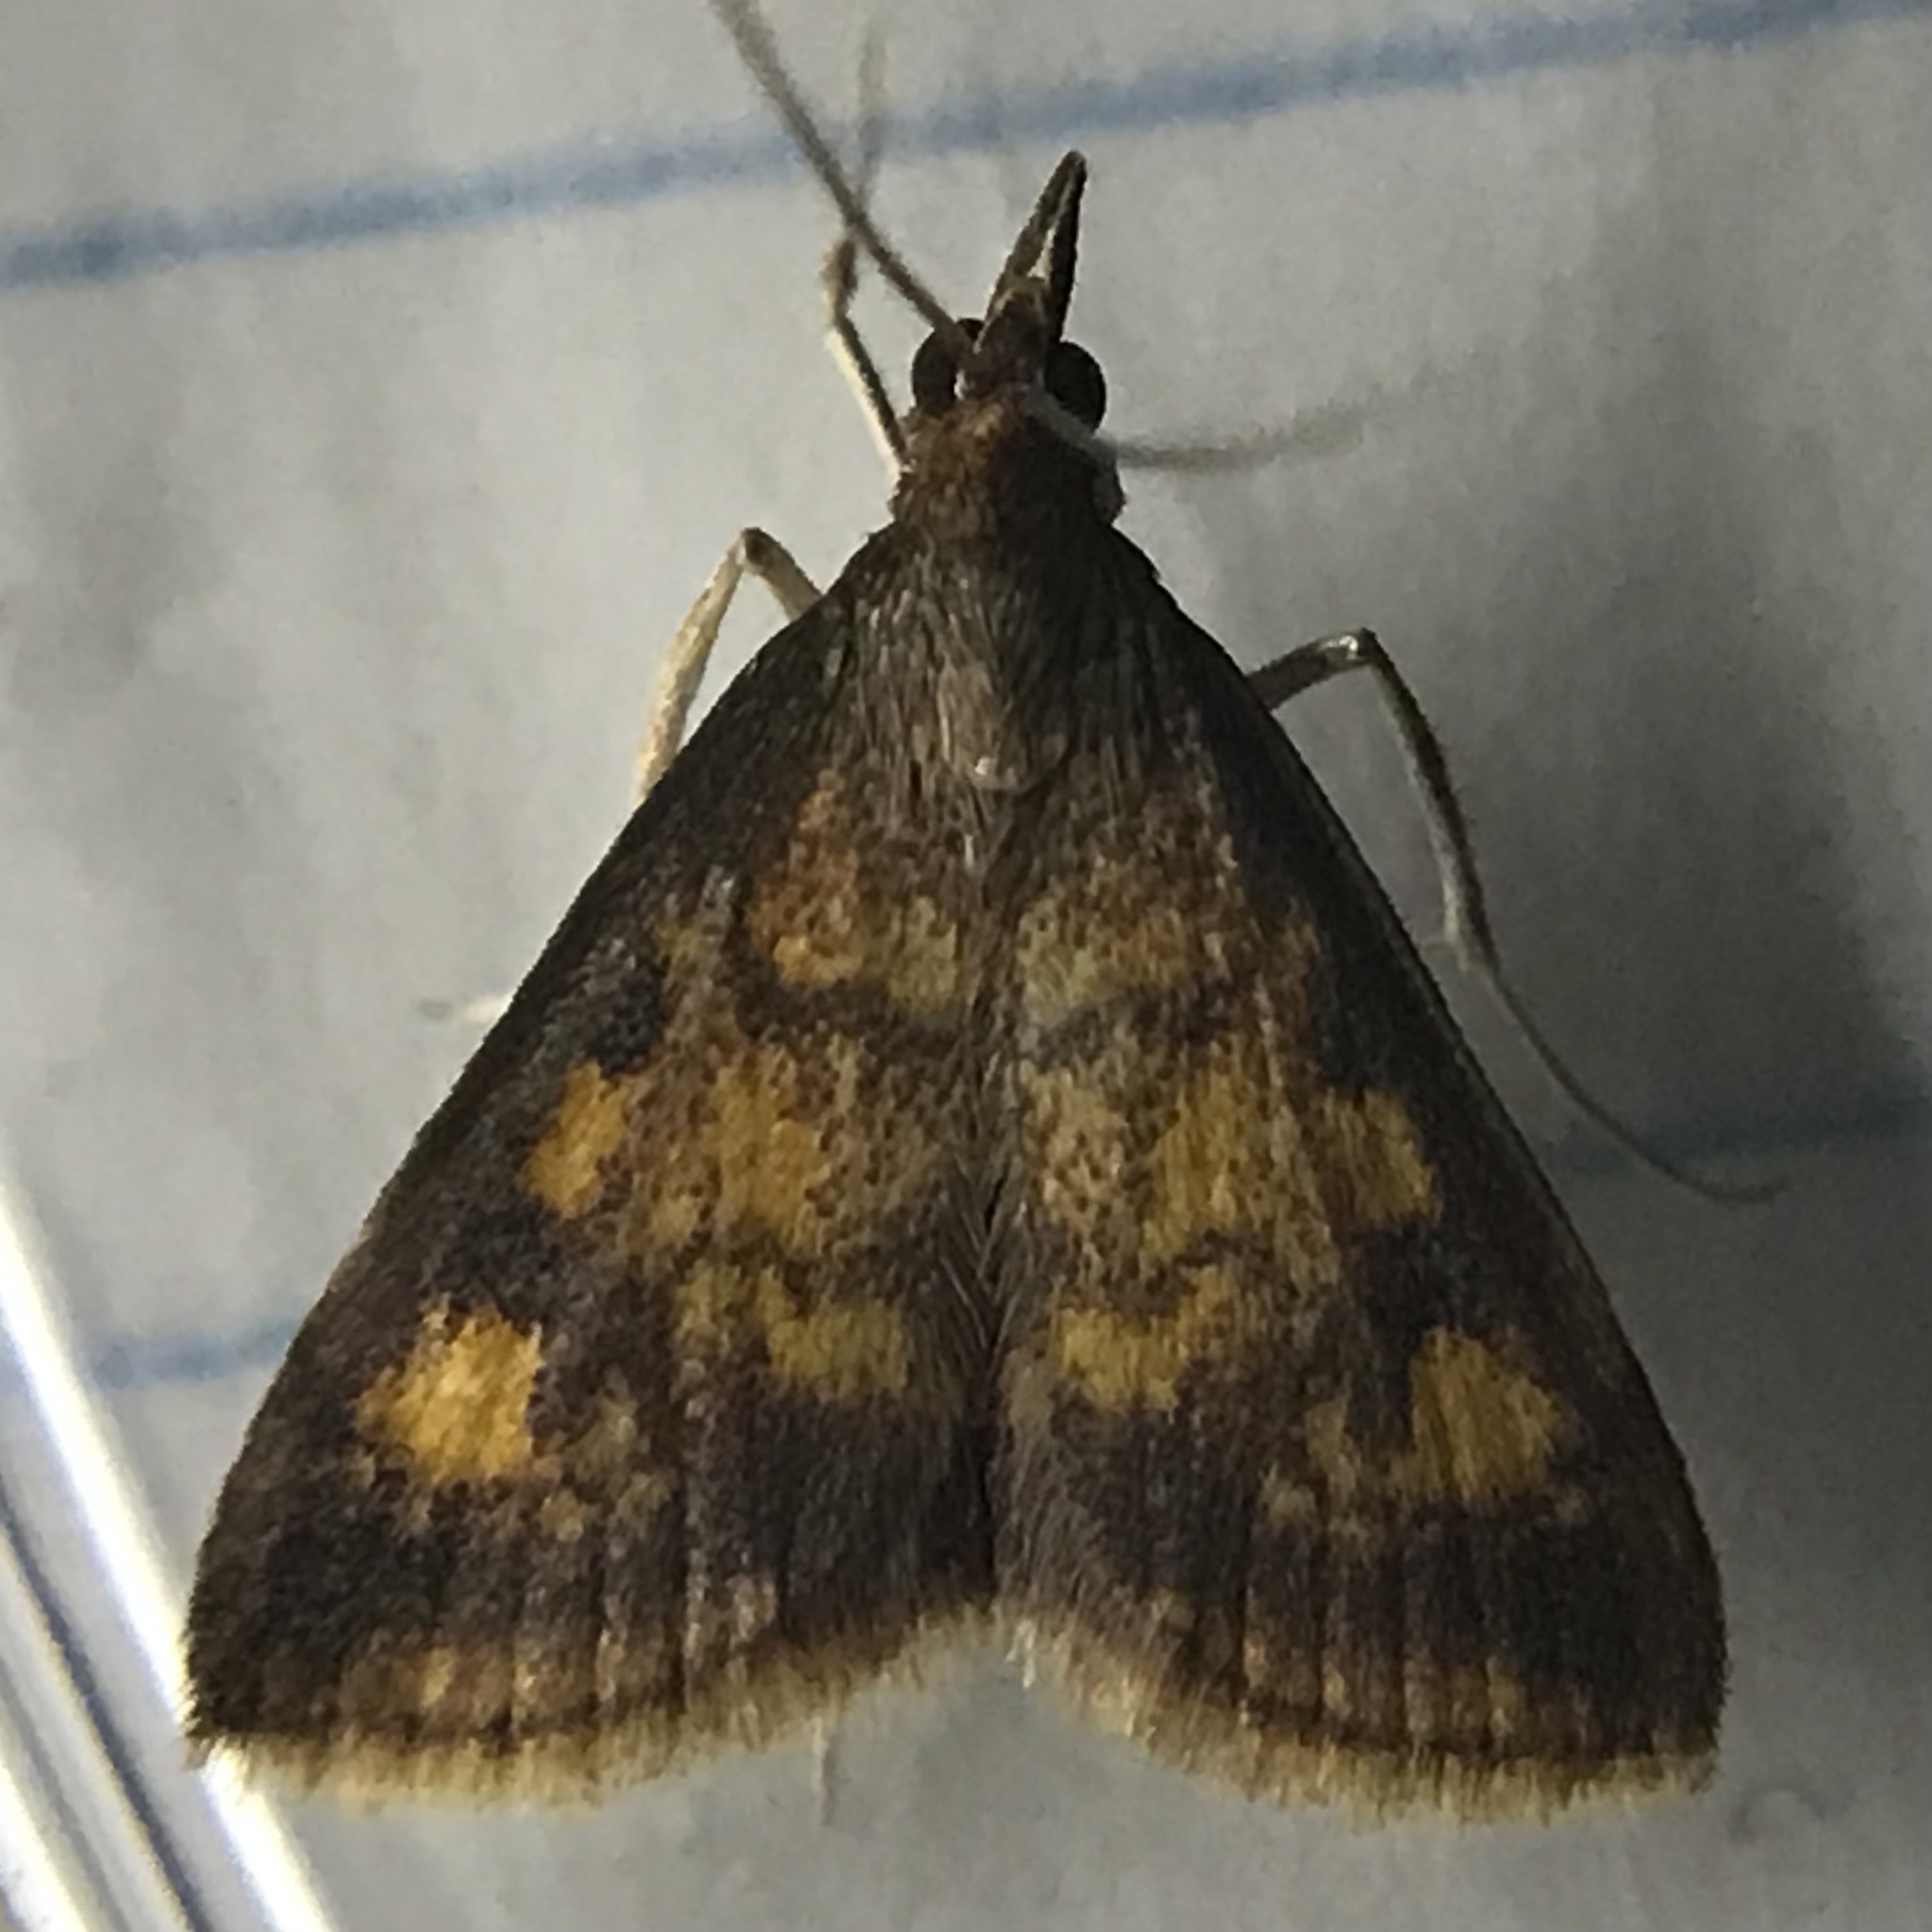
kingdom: Animalia
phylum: Arthropoda
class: Insecta
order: Lepidoptera
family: Crambidae
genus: Pyrausta
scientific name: Pyrausta acrionalis
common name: Mint-loving pyrausta moth
